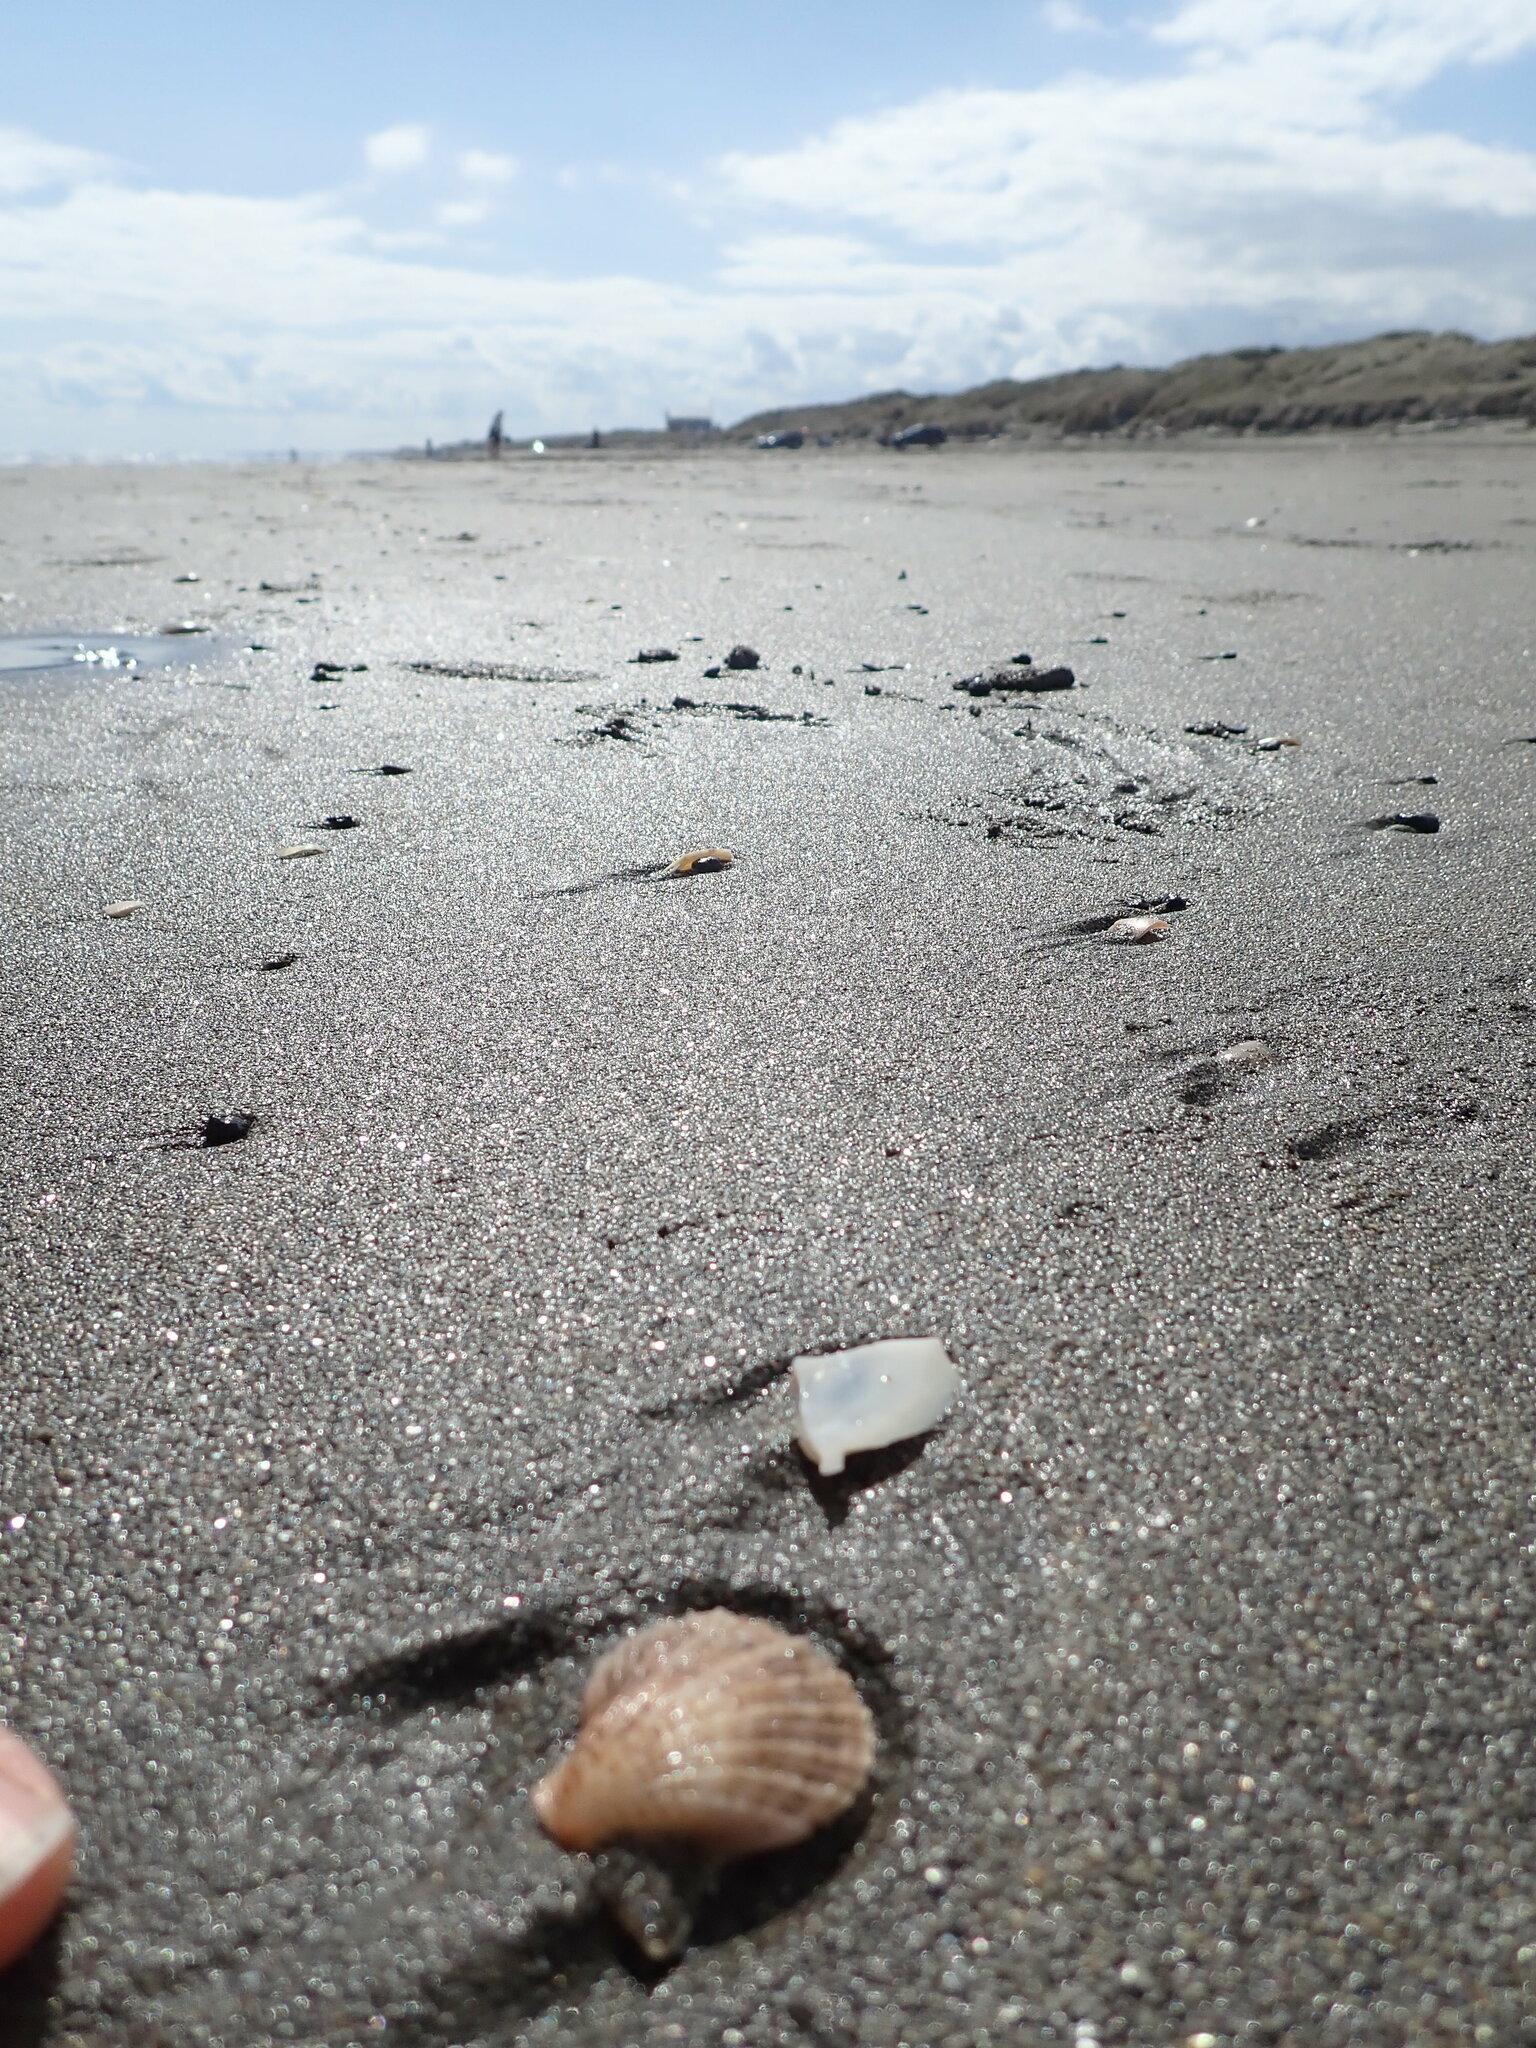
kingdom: Animalia
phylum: Mollusca
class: Bivalvia
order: Pectinida
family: Pectinidae
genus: Talochlamys
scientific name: Talochlamys zelandiae
